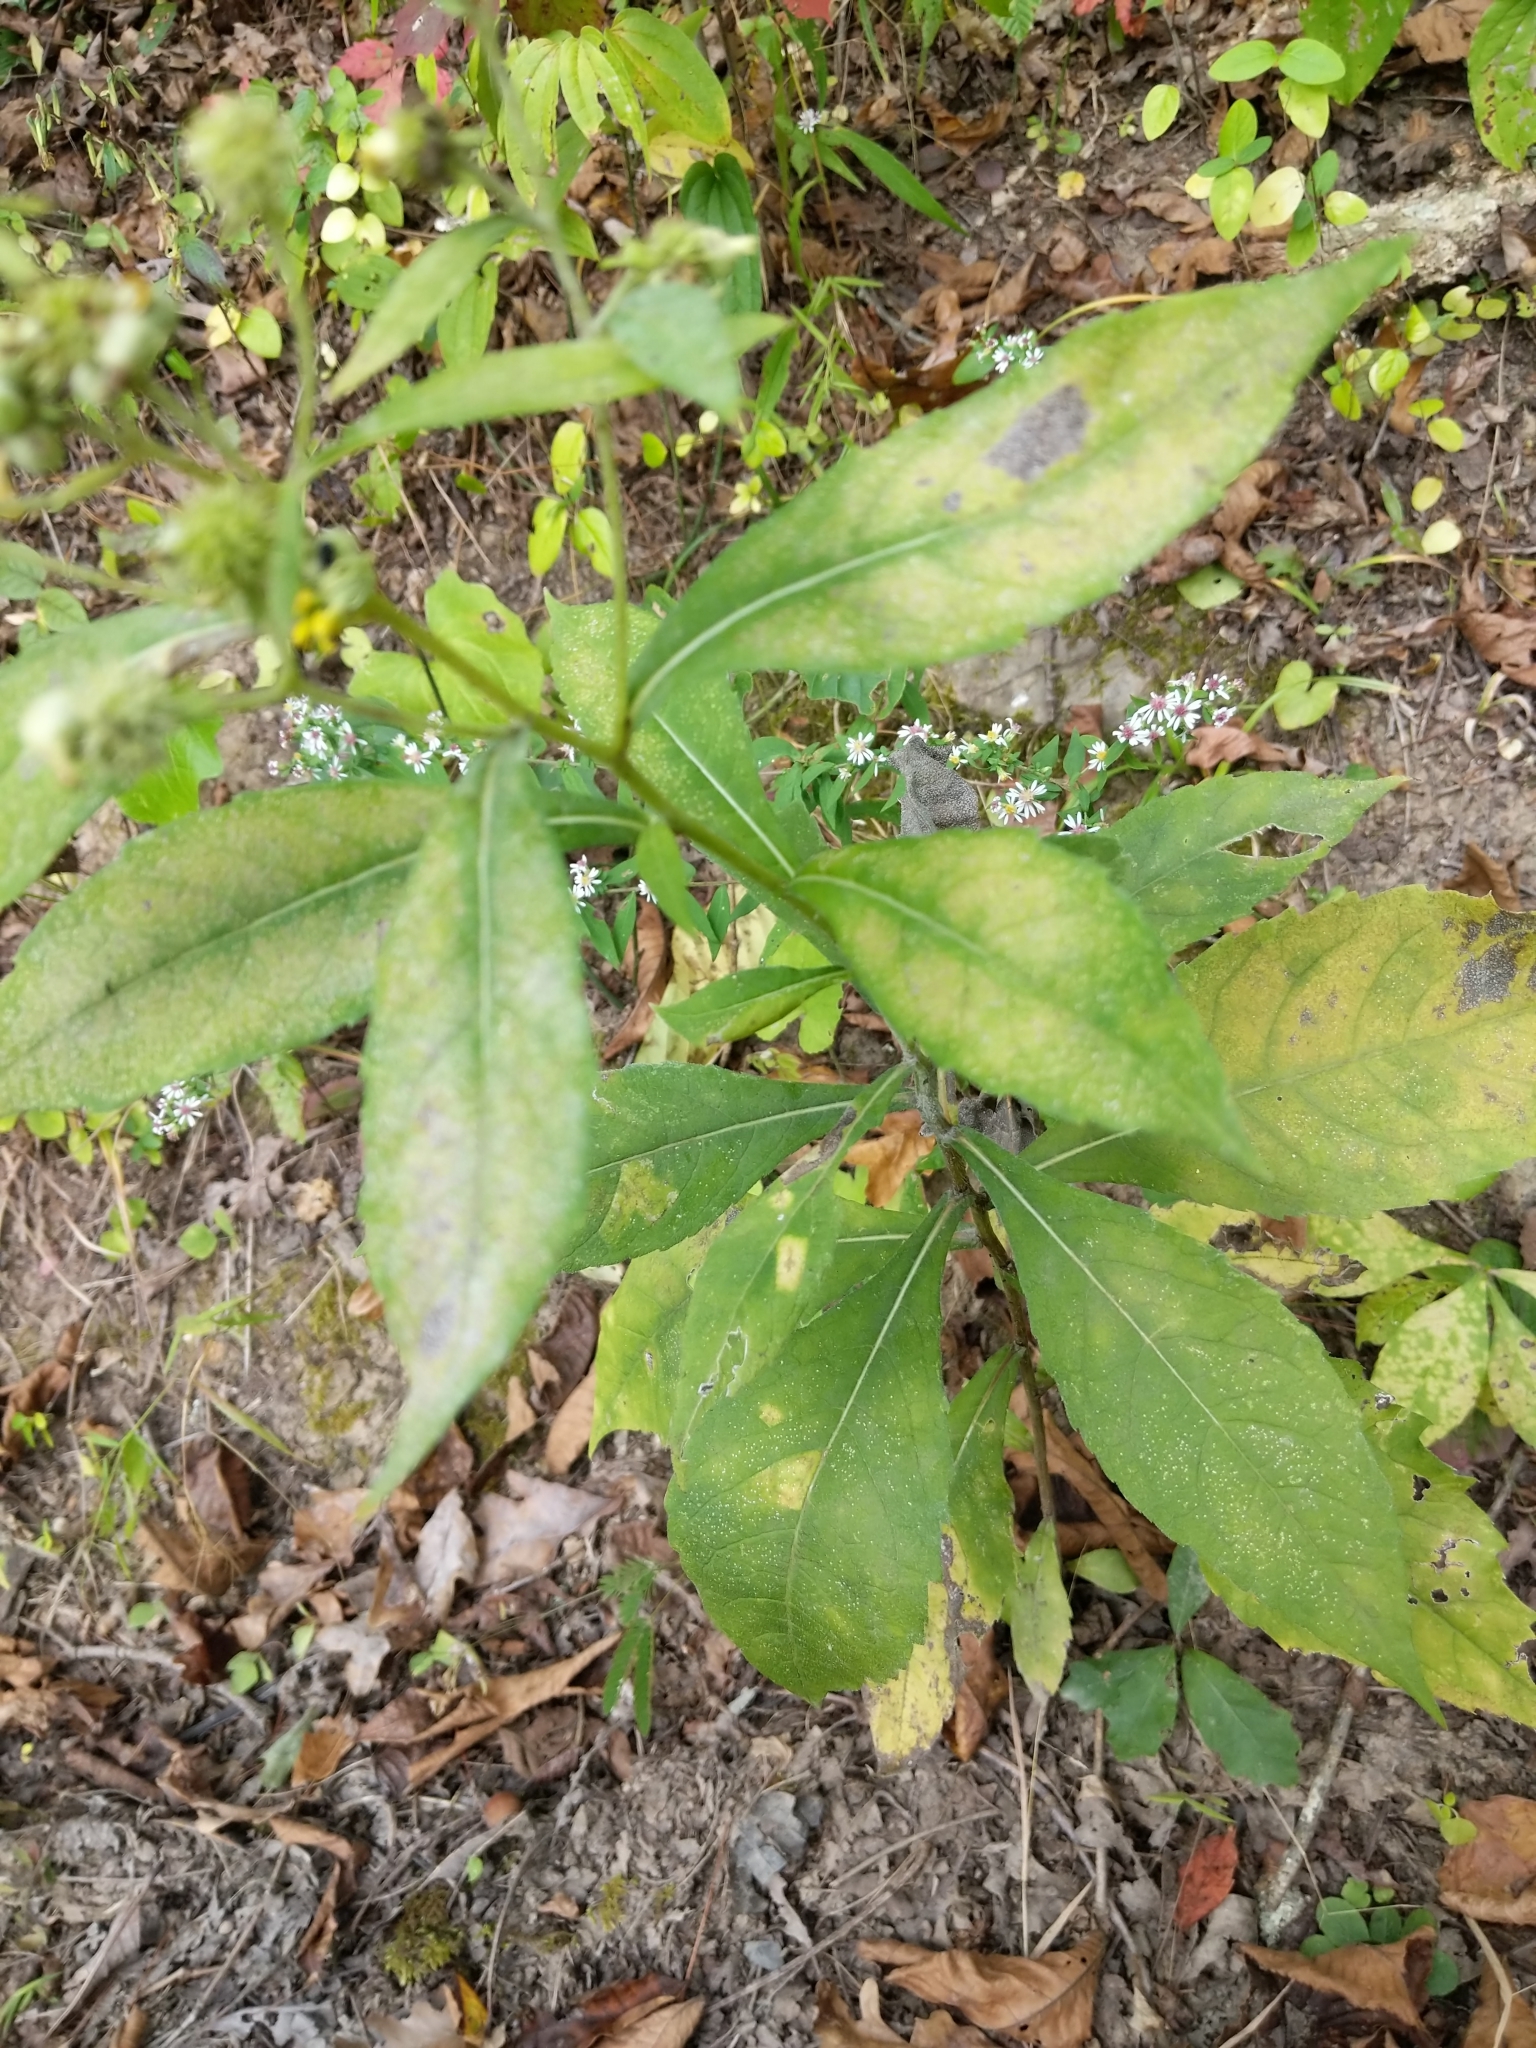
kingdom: Plantae
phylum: Tracheophyta
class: Magnoliopsida
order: Asterales
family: Asteraceae
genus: Verbesina
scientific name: Verbesina alternifolia
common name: Wingstem
